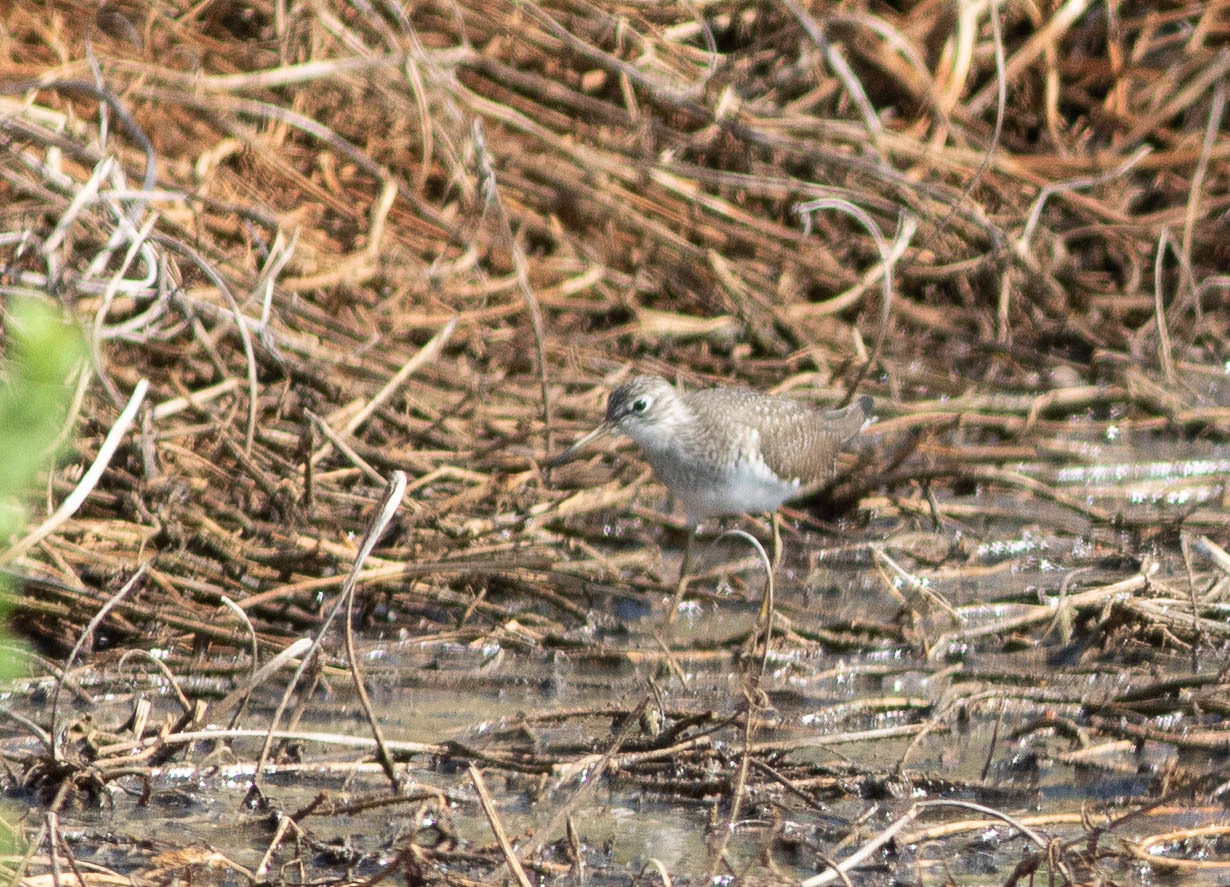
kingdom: Animalia
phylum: Chordata
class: Aves
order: Charadriiformes
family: Scolopacidae
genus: Tringa
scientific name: Tringa solitaria
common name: Solitary sandpiper
